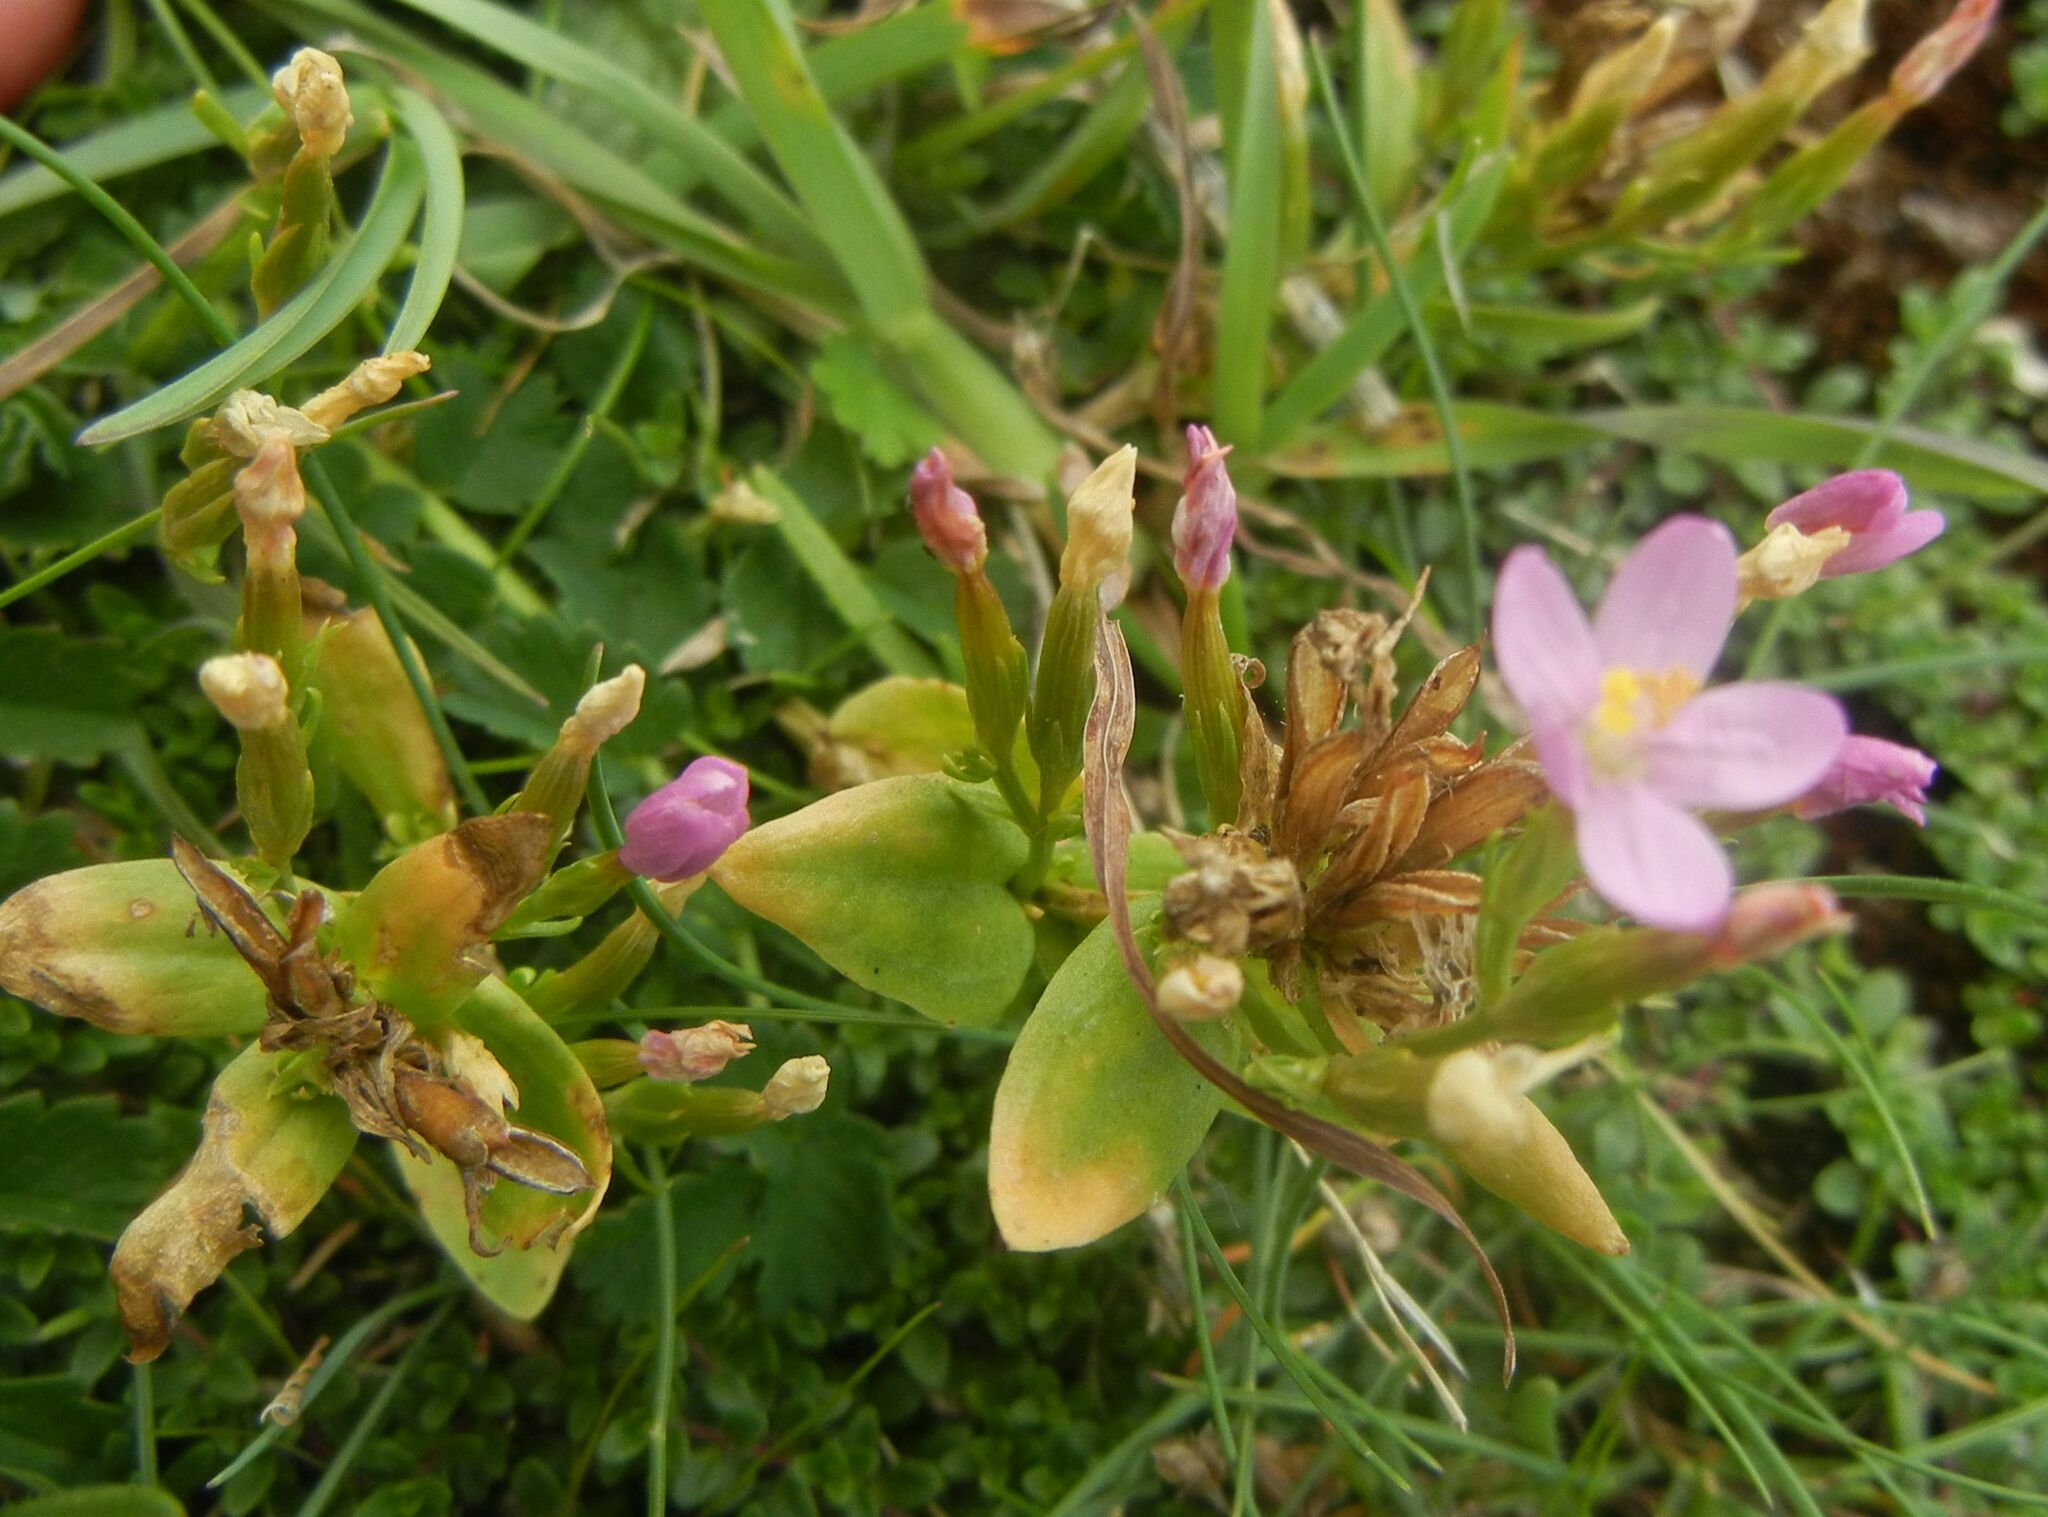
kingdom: Plantae
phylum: Tracheophyta
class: Magnoliopsida
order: Gentianales
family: Gentianaceae
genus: Centaurium
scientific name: Centaurium erythraea
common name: Common centaury
